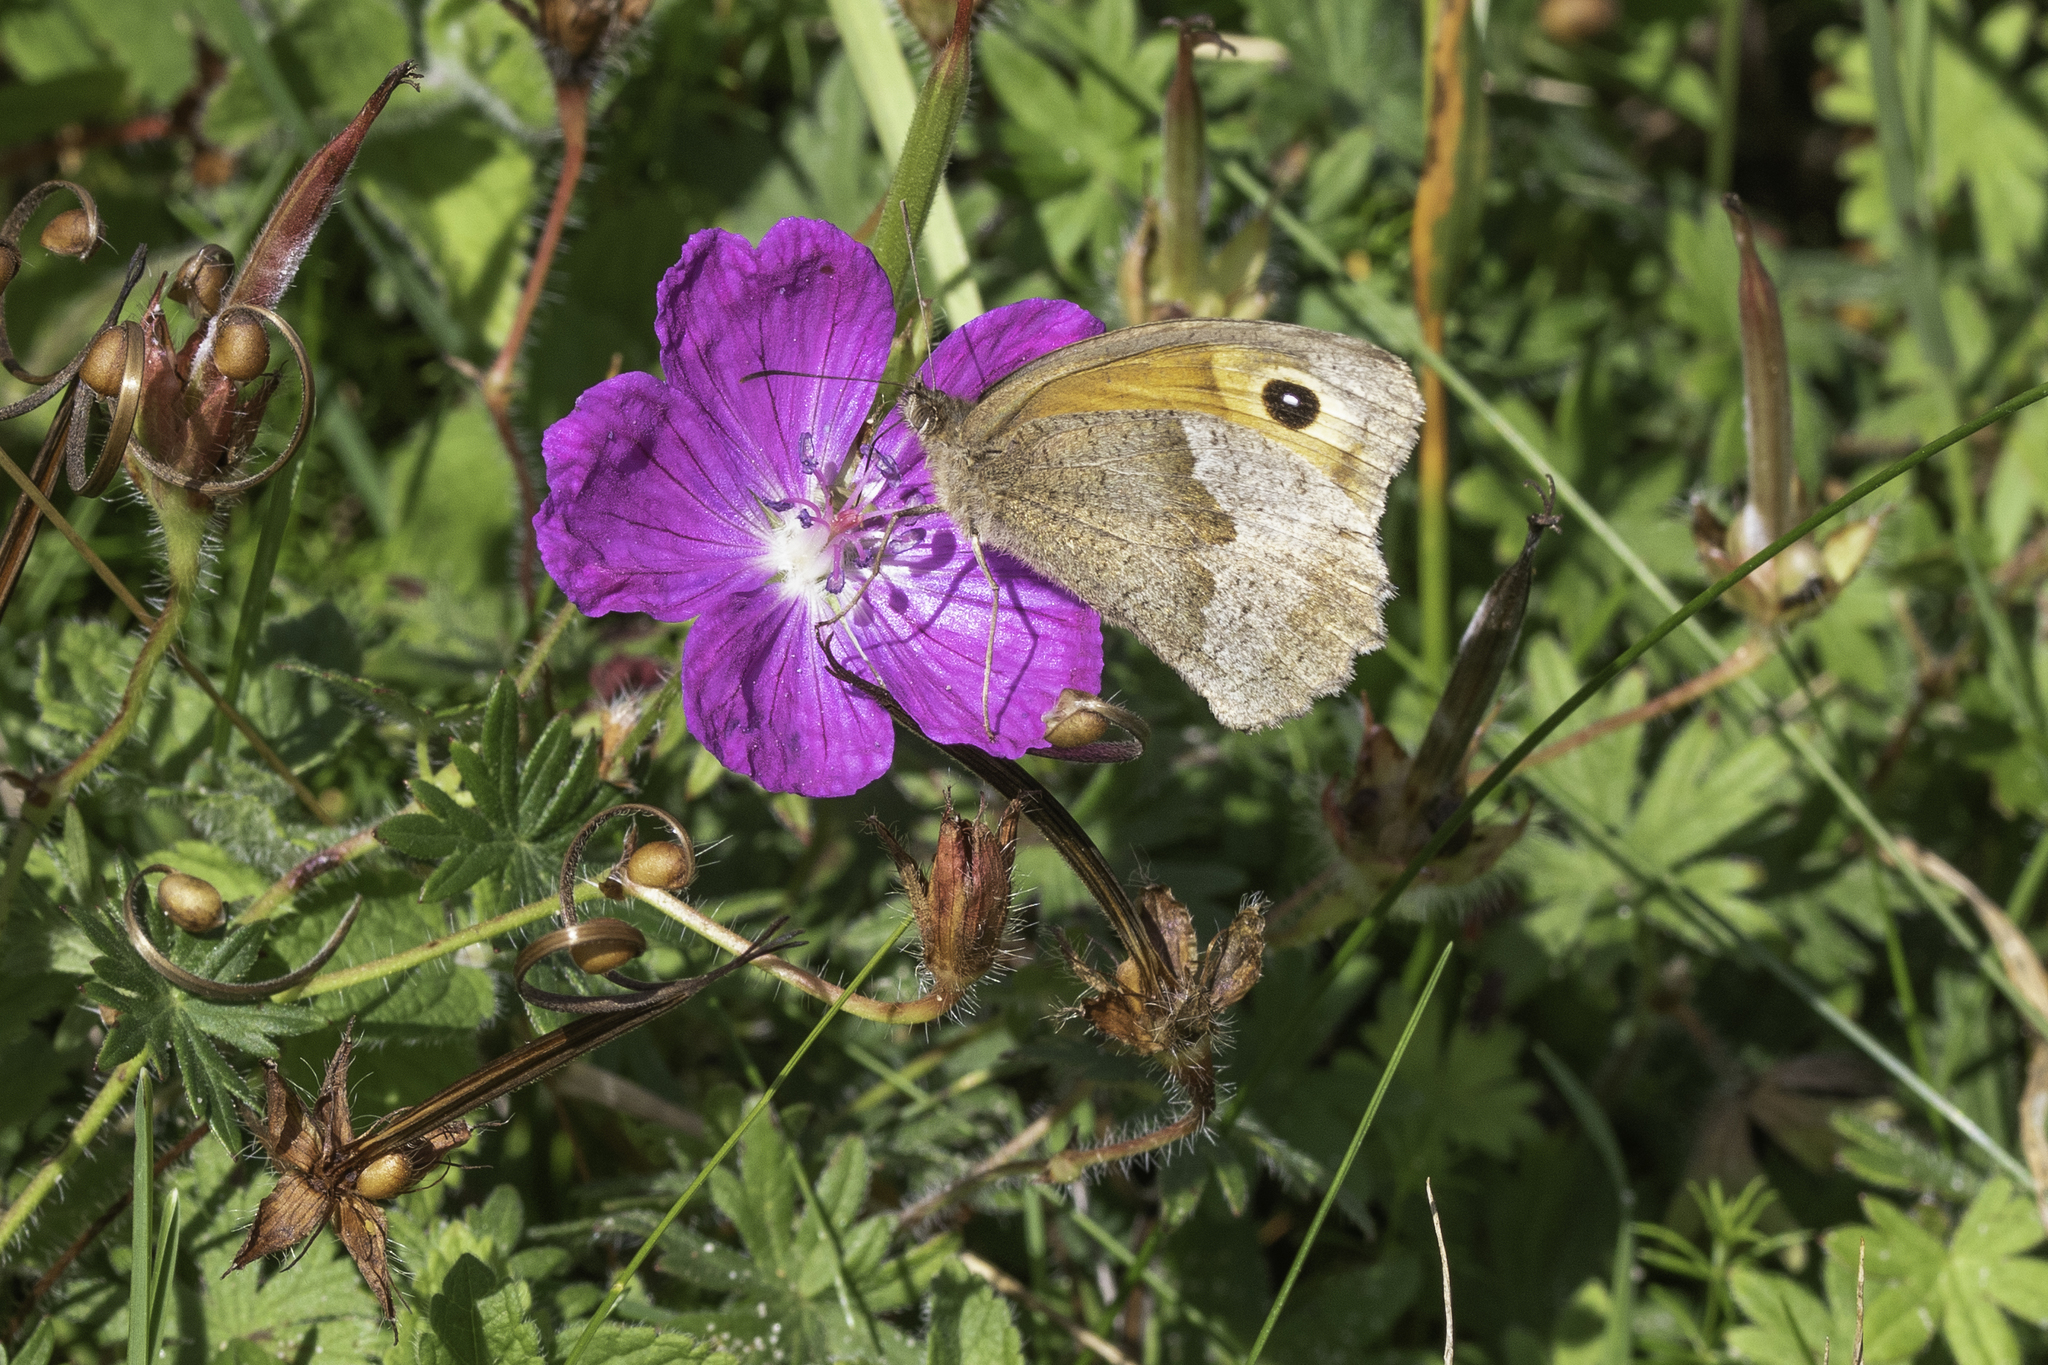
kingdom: Animalia
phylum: Arthropoda
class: Insecta
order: Lepidoptera
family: Nymphalidae
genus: Maniola
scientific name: Maniola jurtina
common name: Meadow brown
